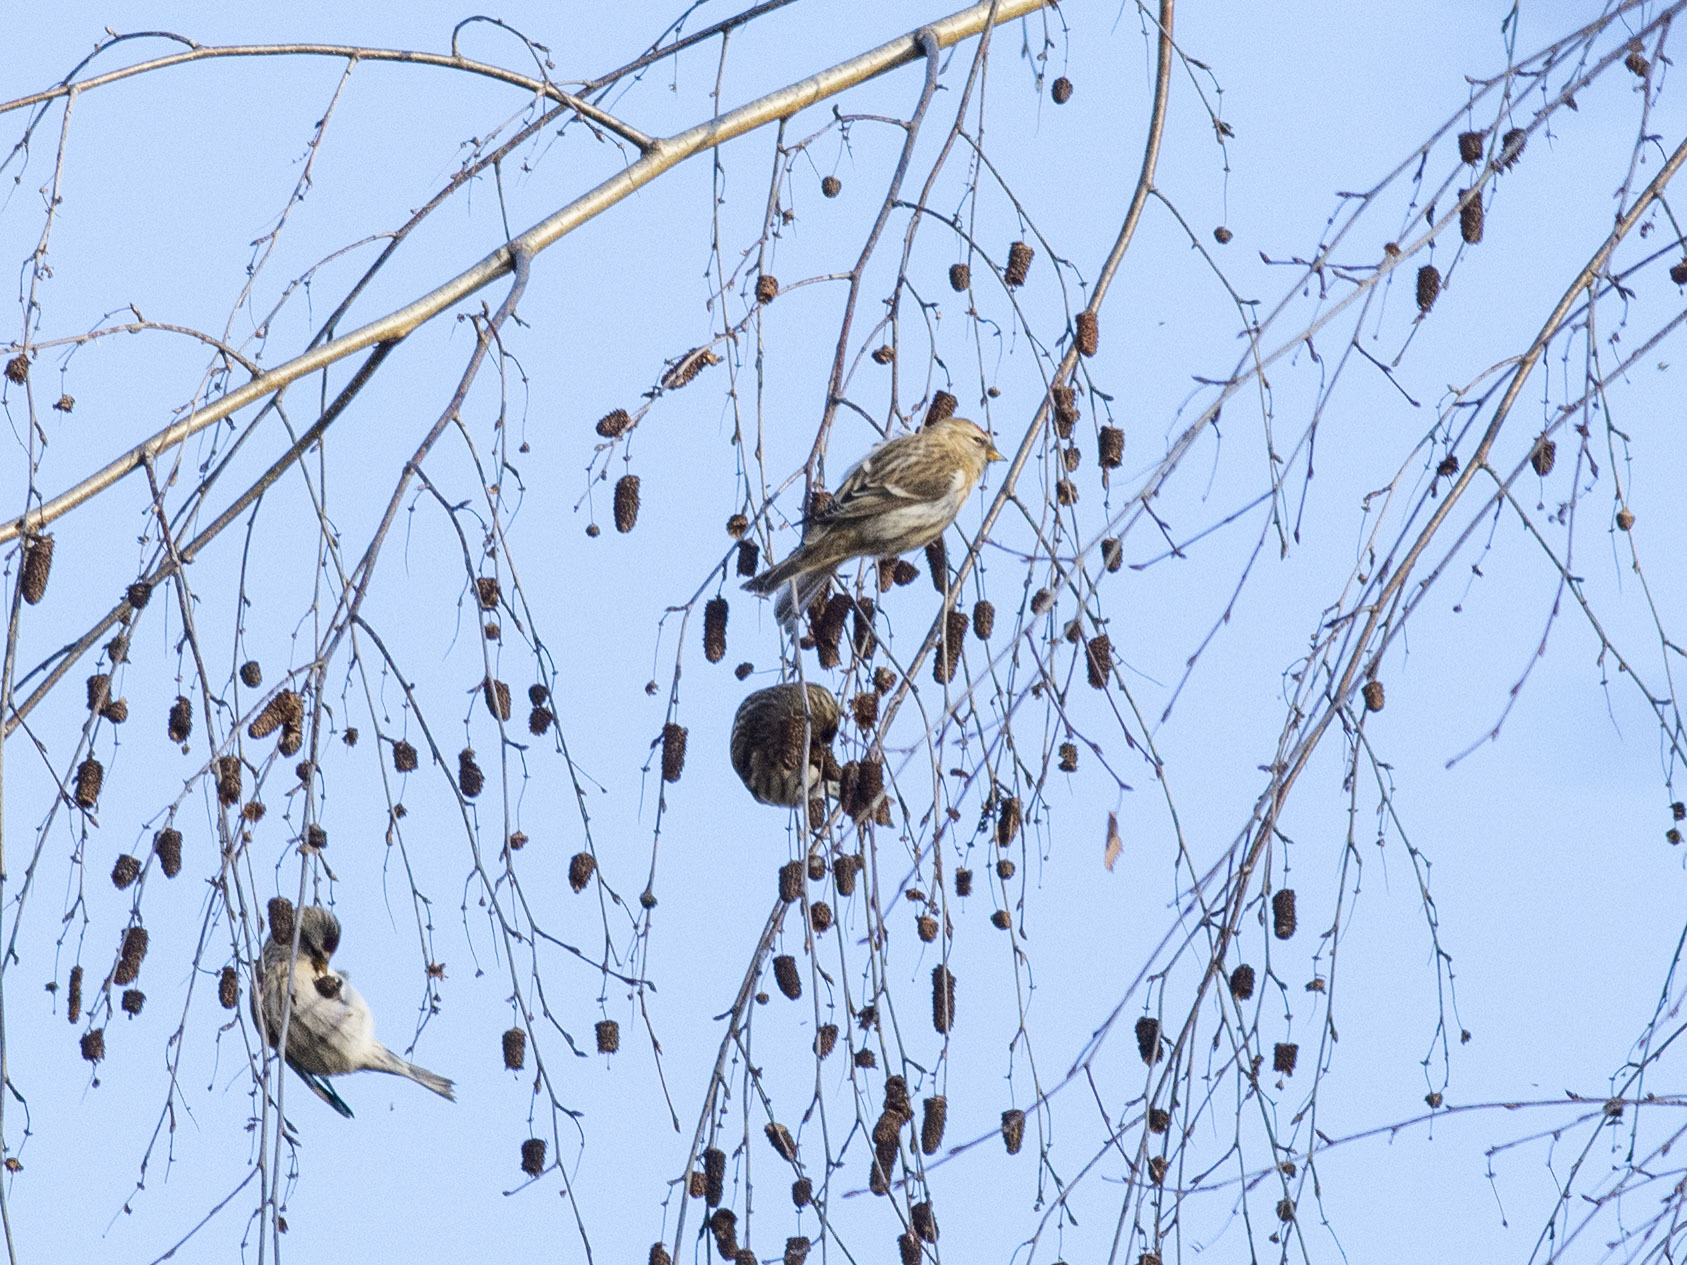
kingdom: Animalia
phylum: Chordata
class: Aves
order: Passeriformes
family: Fringillidae
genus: Acanthis
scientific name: Acanthis flammea
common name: Common redpoll
